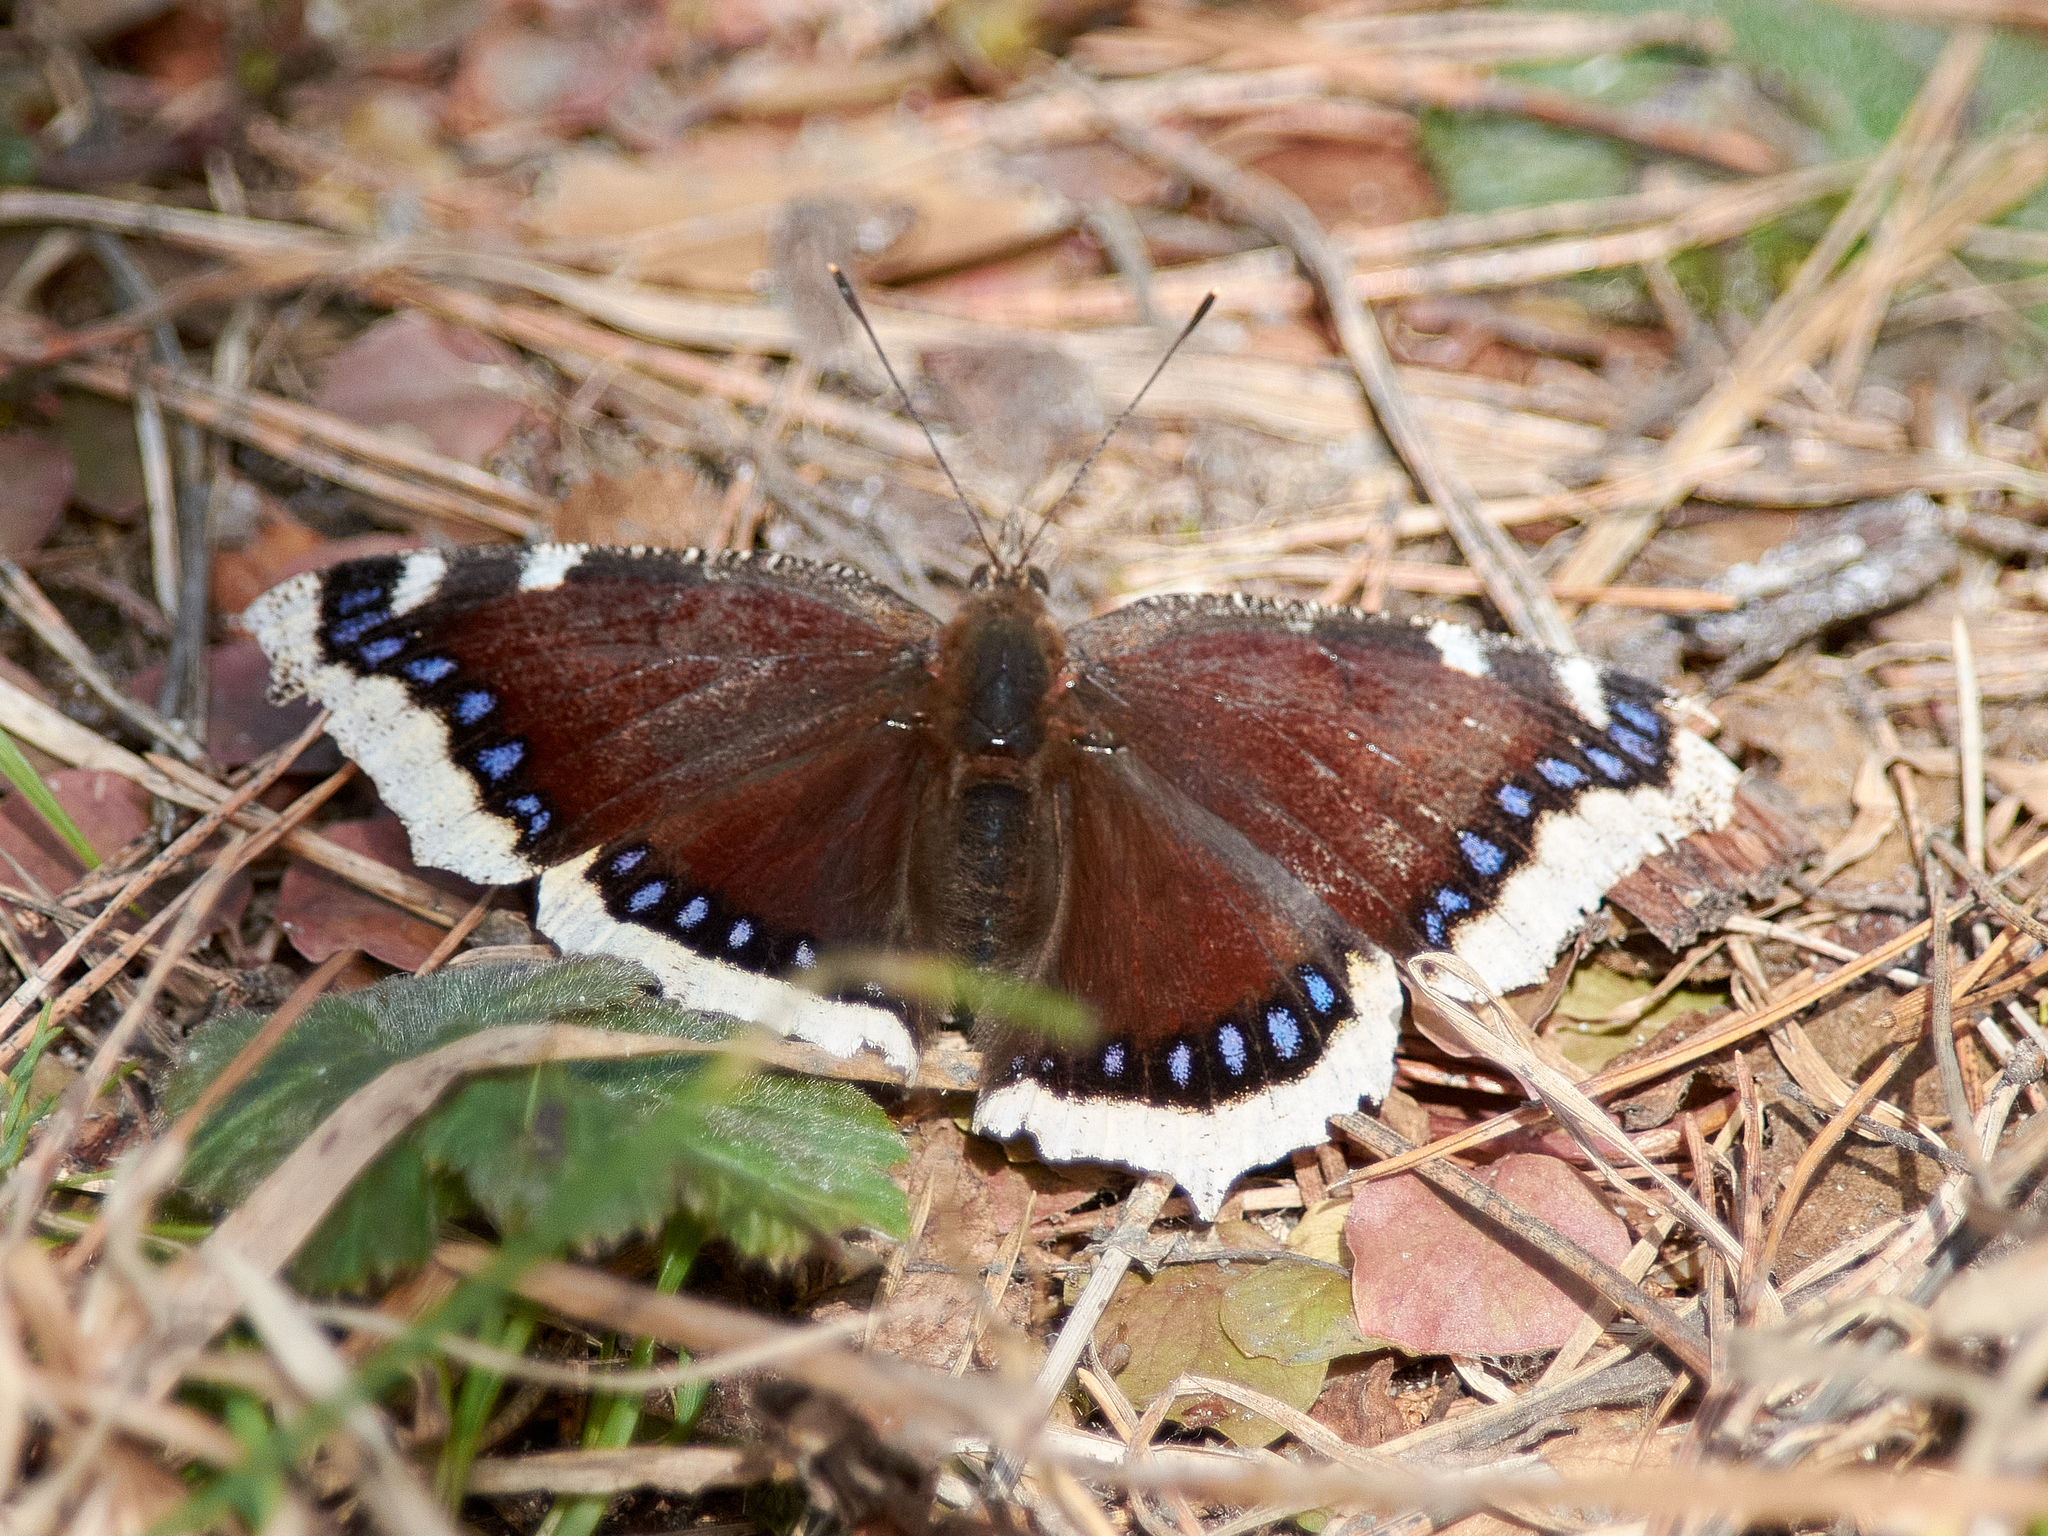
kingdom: Animalia
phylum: Arthropoda
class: Insecta
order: Lepidoptera
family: Nymphalidae
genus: Nymphalis
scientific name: Nymphalis antiopa
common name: Camberwell beauty
